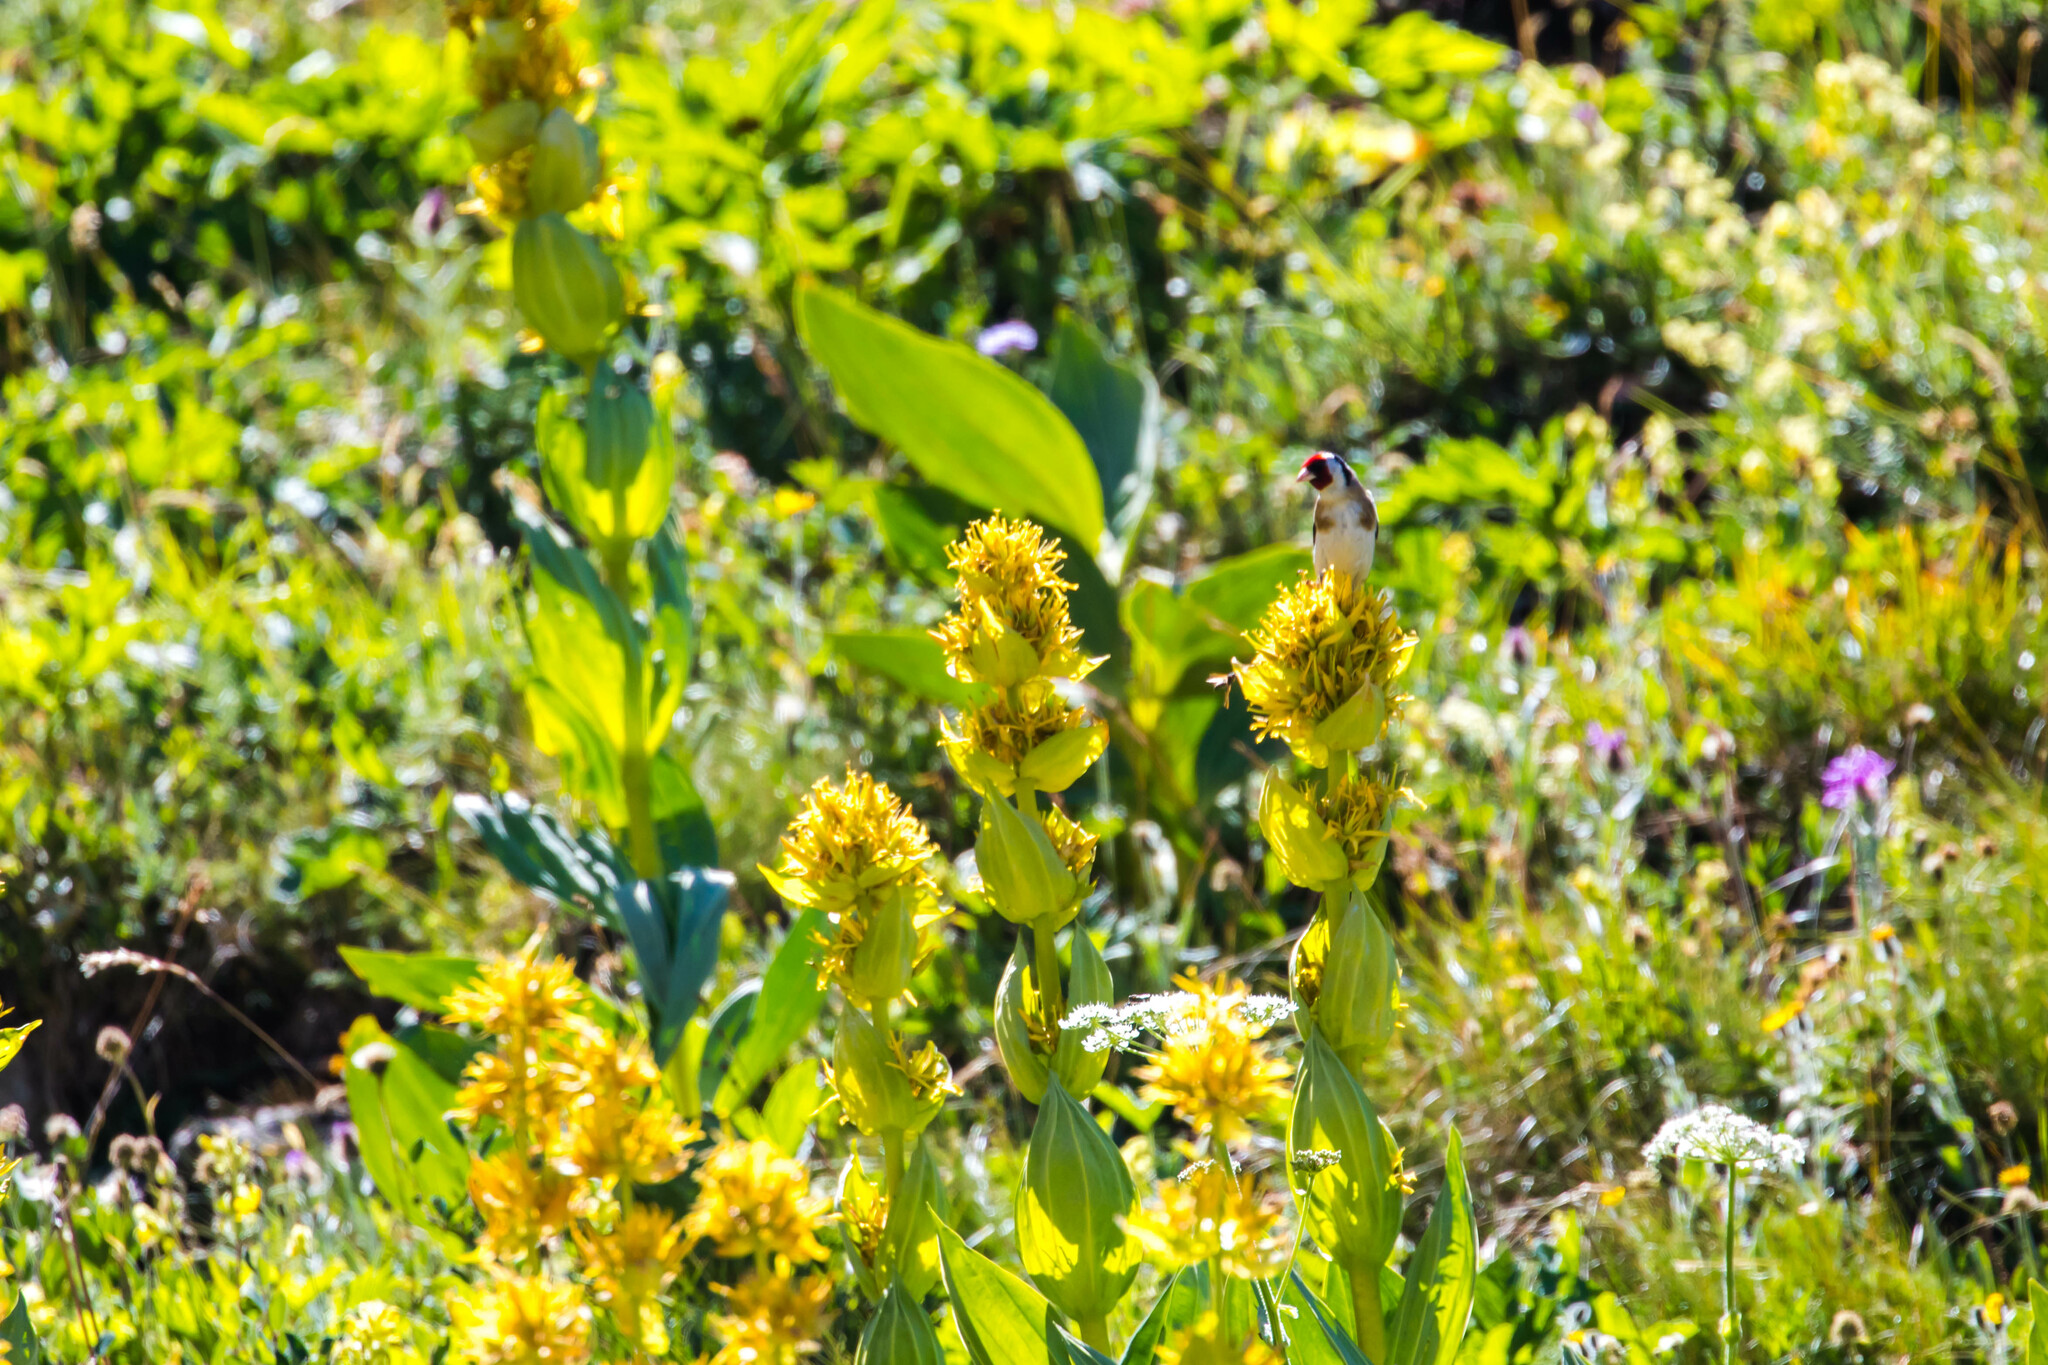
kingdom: Animalia
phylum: Chordata
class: Aves
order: Passeriformes
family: Fringillidae
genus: Carduelis
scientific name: Carduelis carduelis
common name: European goldfinch
